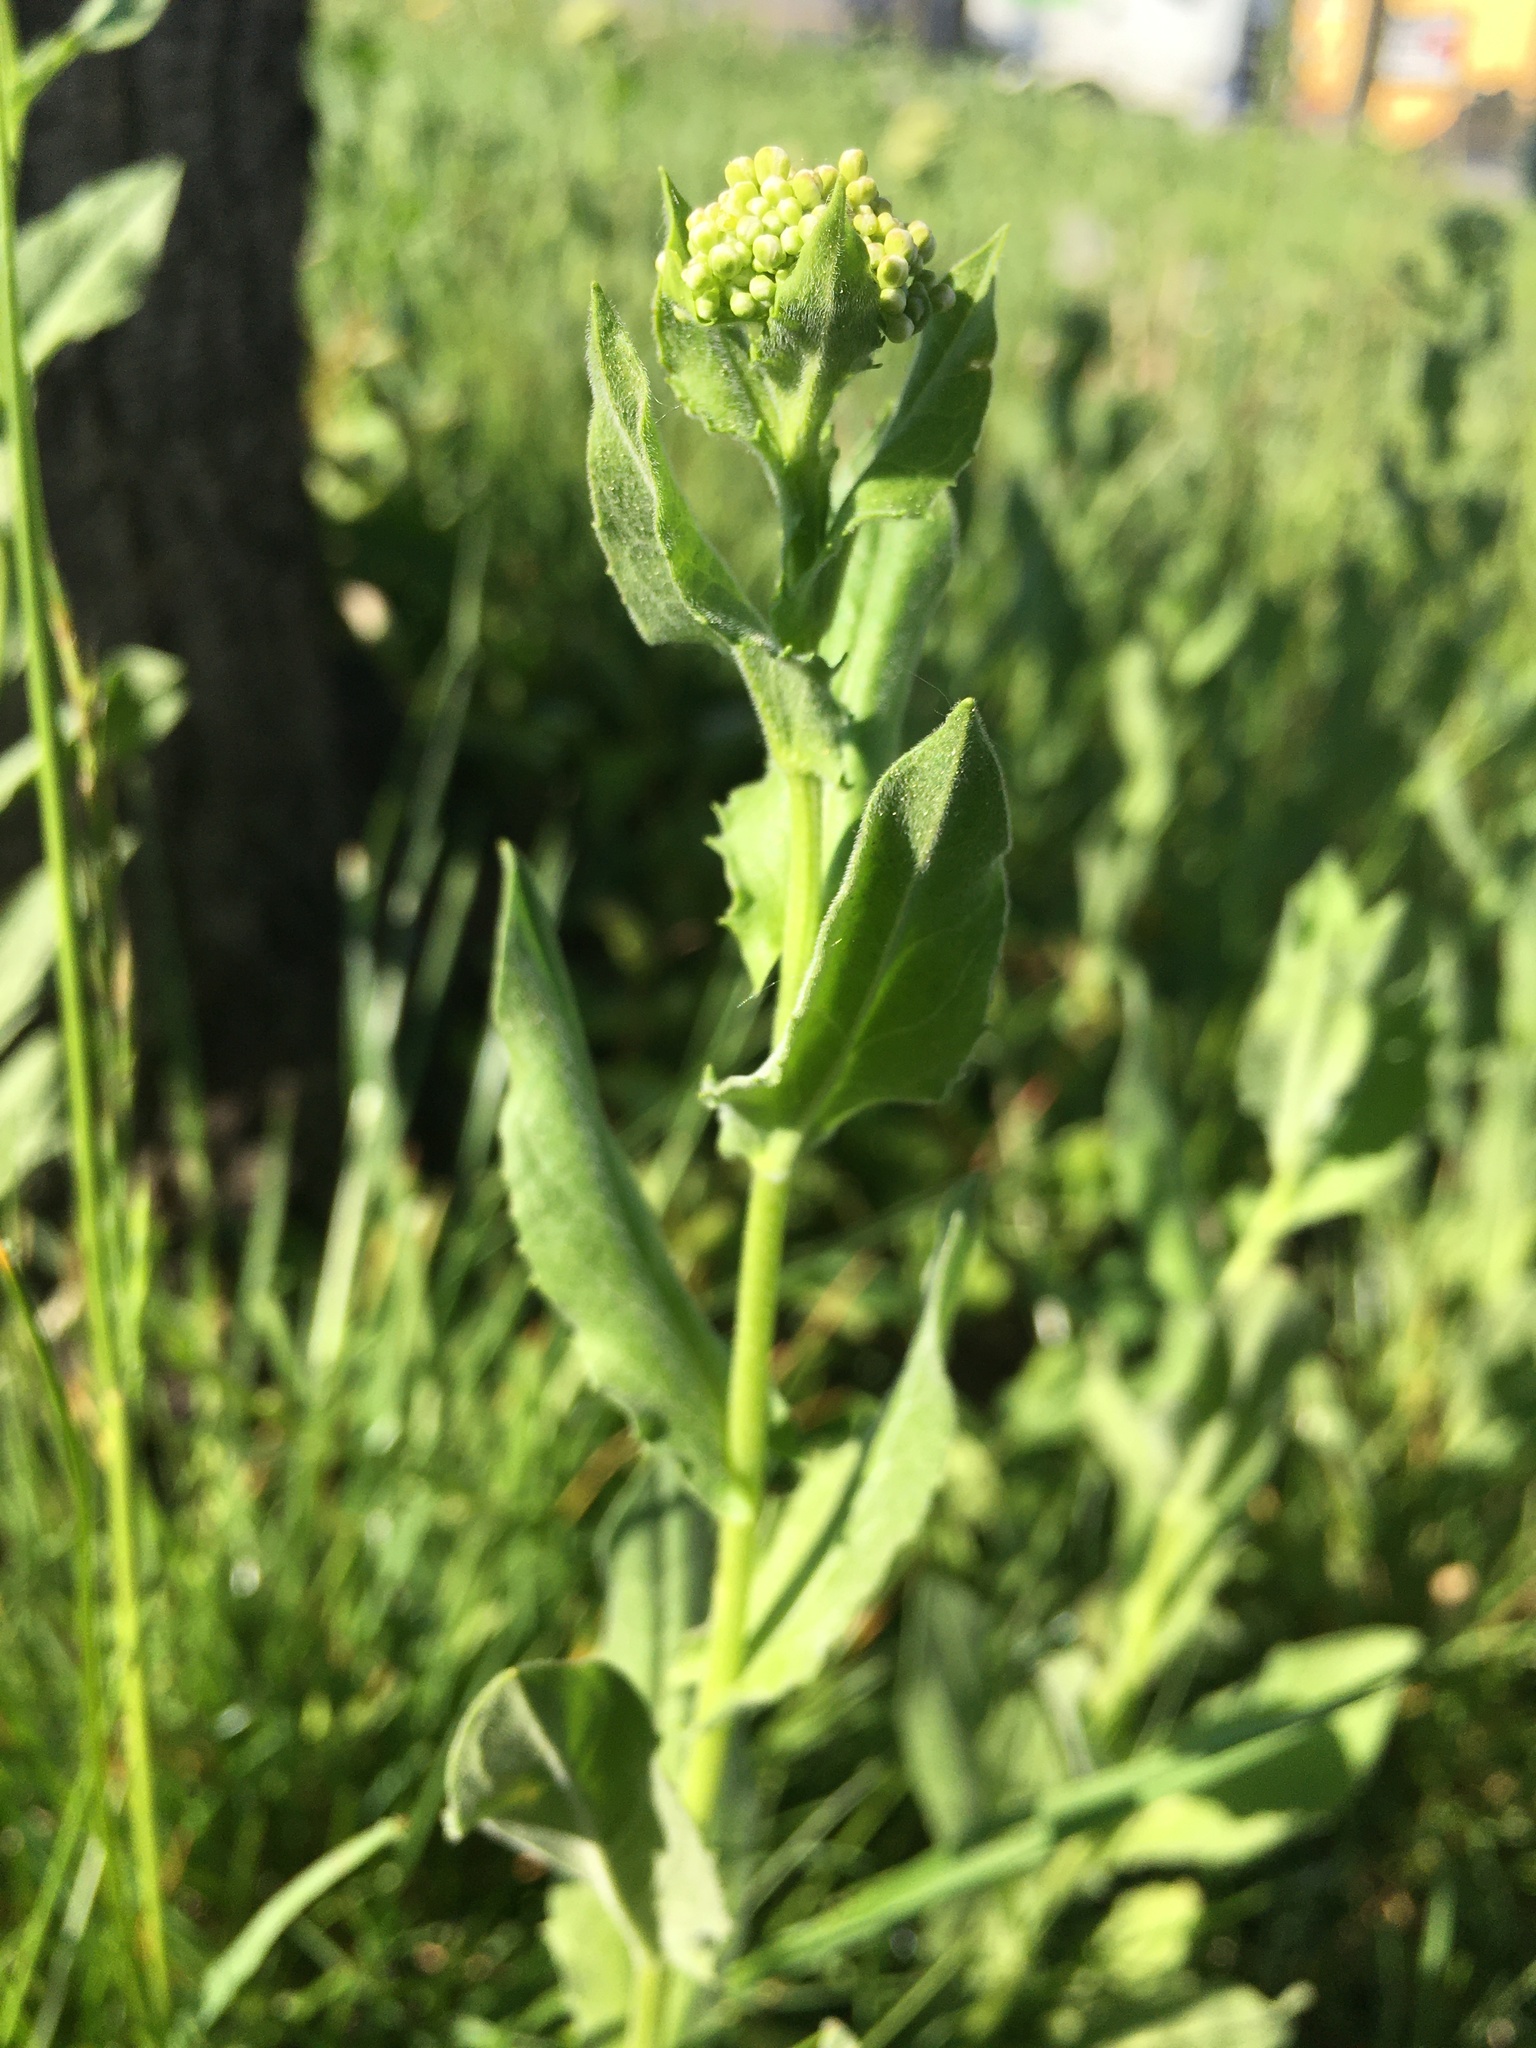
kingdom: Plantae
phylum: Tracheophyta
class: Magnoliopsida
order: Brassicales
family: Brassicaceae
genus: Lepidium
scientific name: Lepidium draba
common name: Hoary cress
